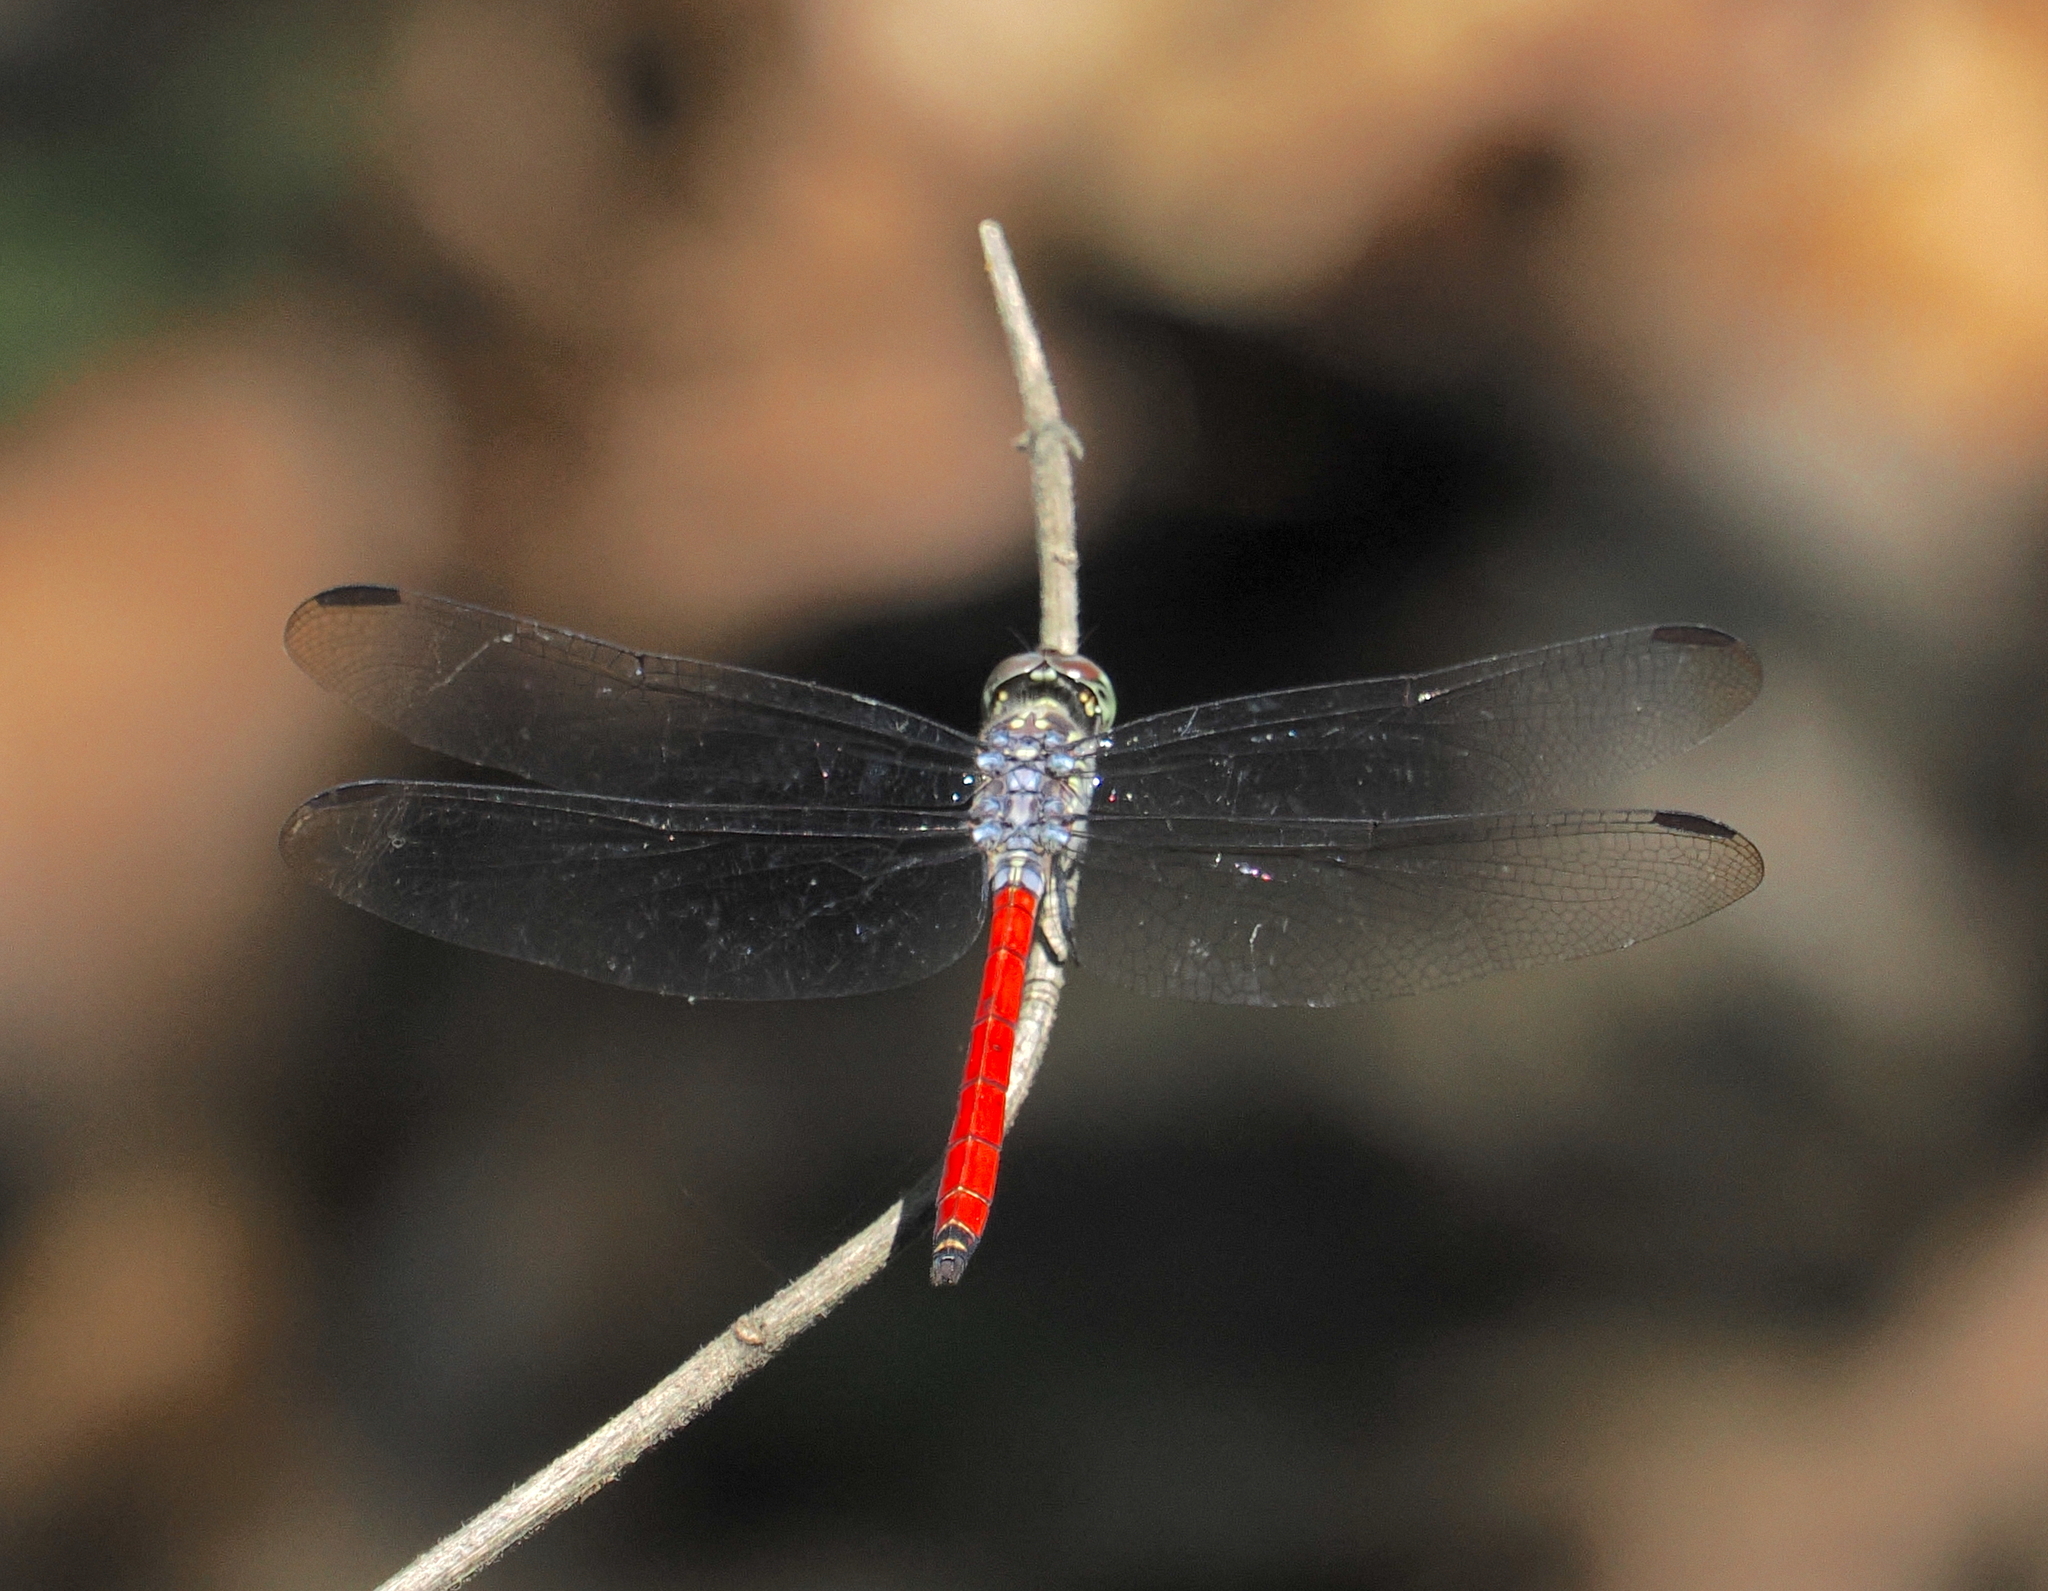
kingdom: Animalia
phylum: Arthropoda
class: Insecta
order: Odonata
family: Libellulidae
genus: Lathrecista
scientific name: Lathrecista asiatica
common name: Scarlet grenadier
